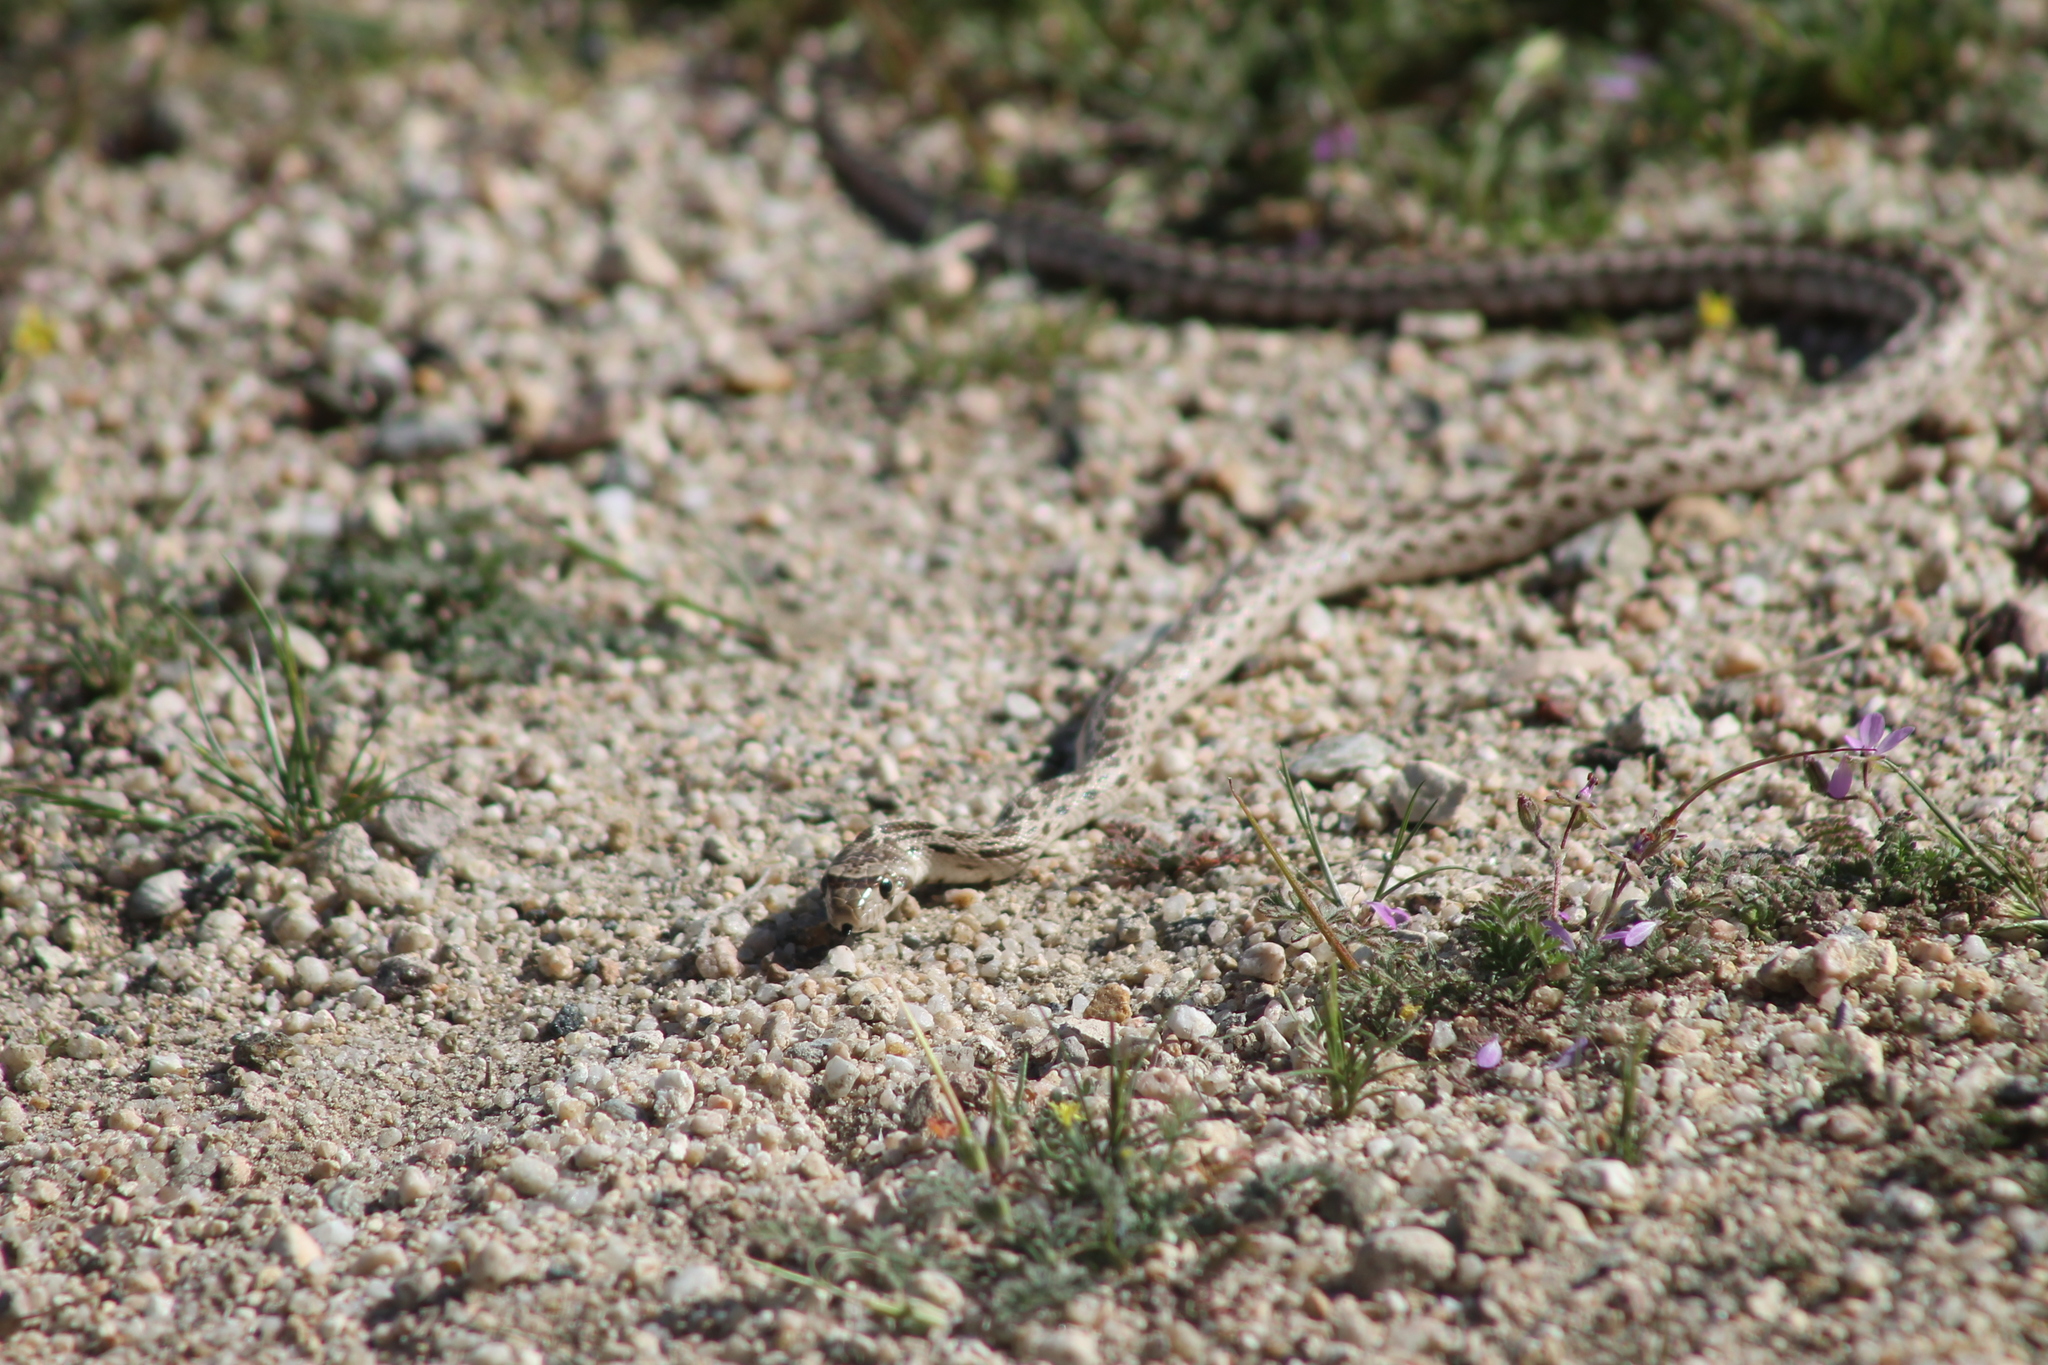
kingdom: Animalia
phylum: Chordata
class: Squamata
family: Colubridae
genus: Pituophis
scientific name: Pituophis catenifer
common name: Gopher snake
